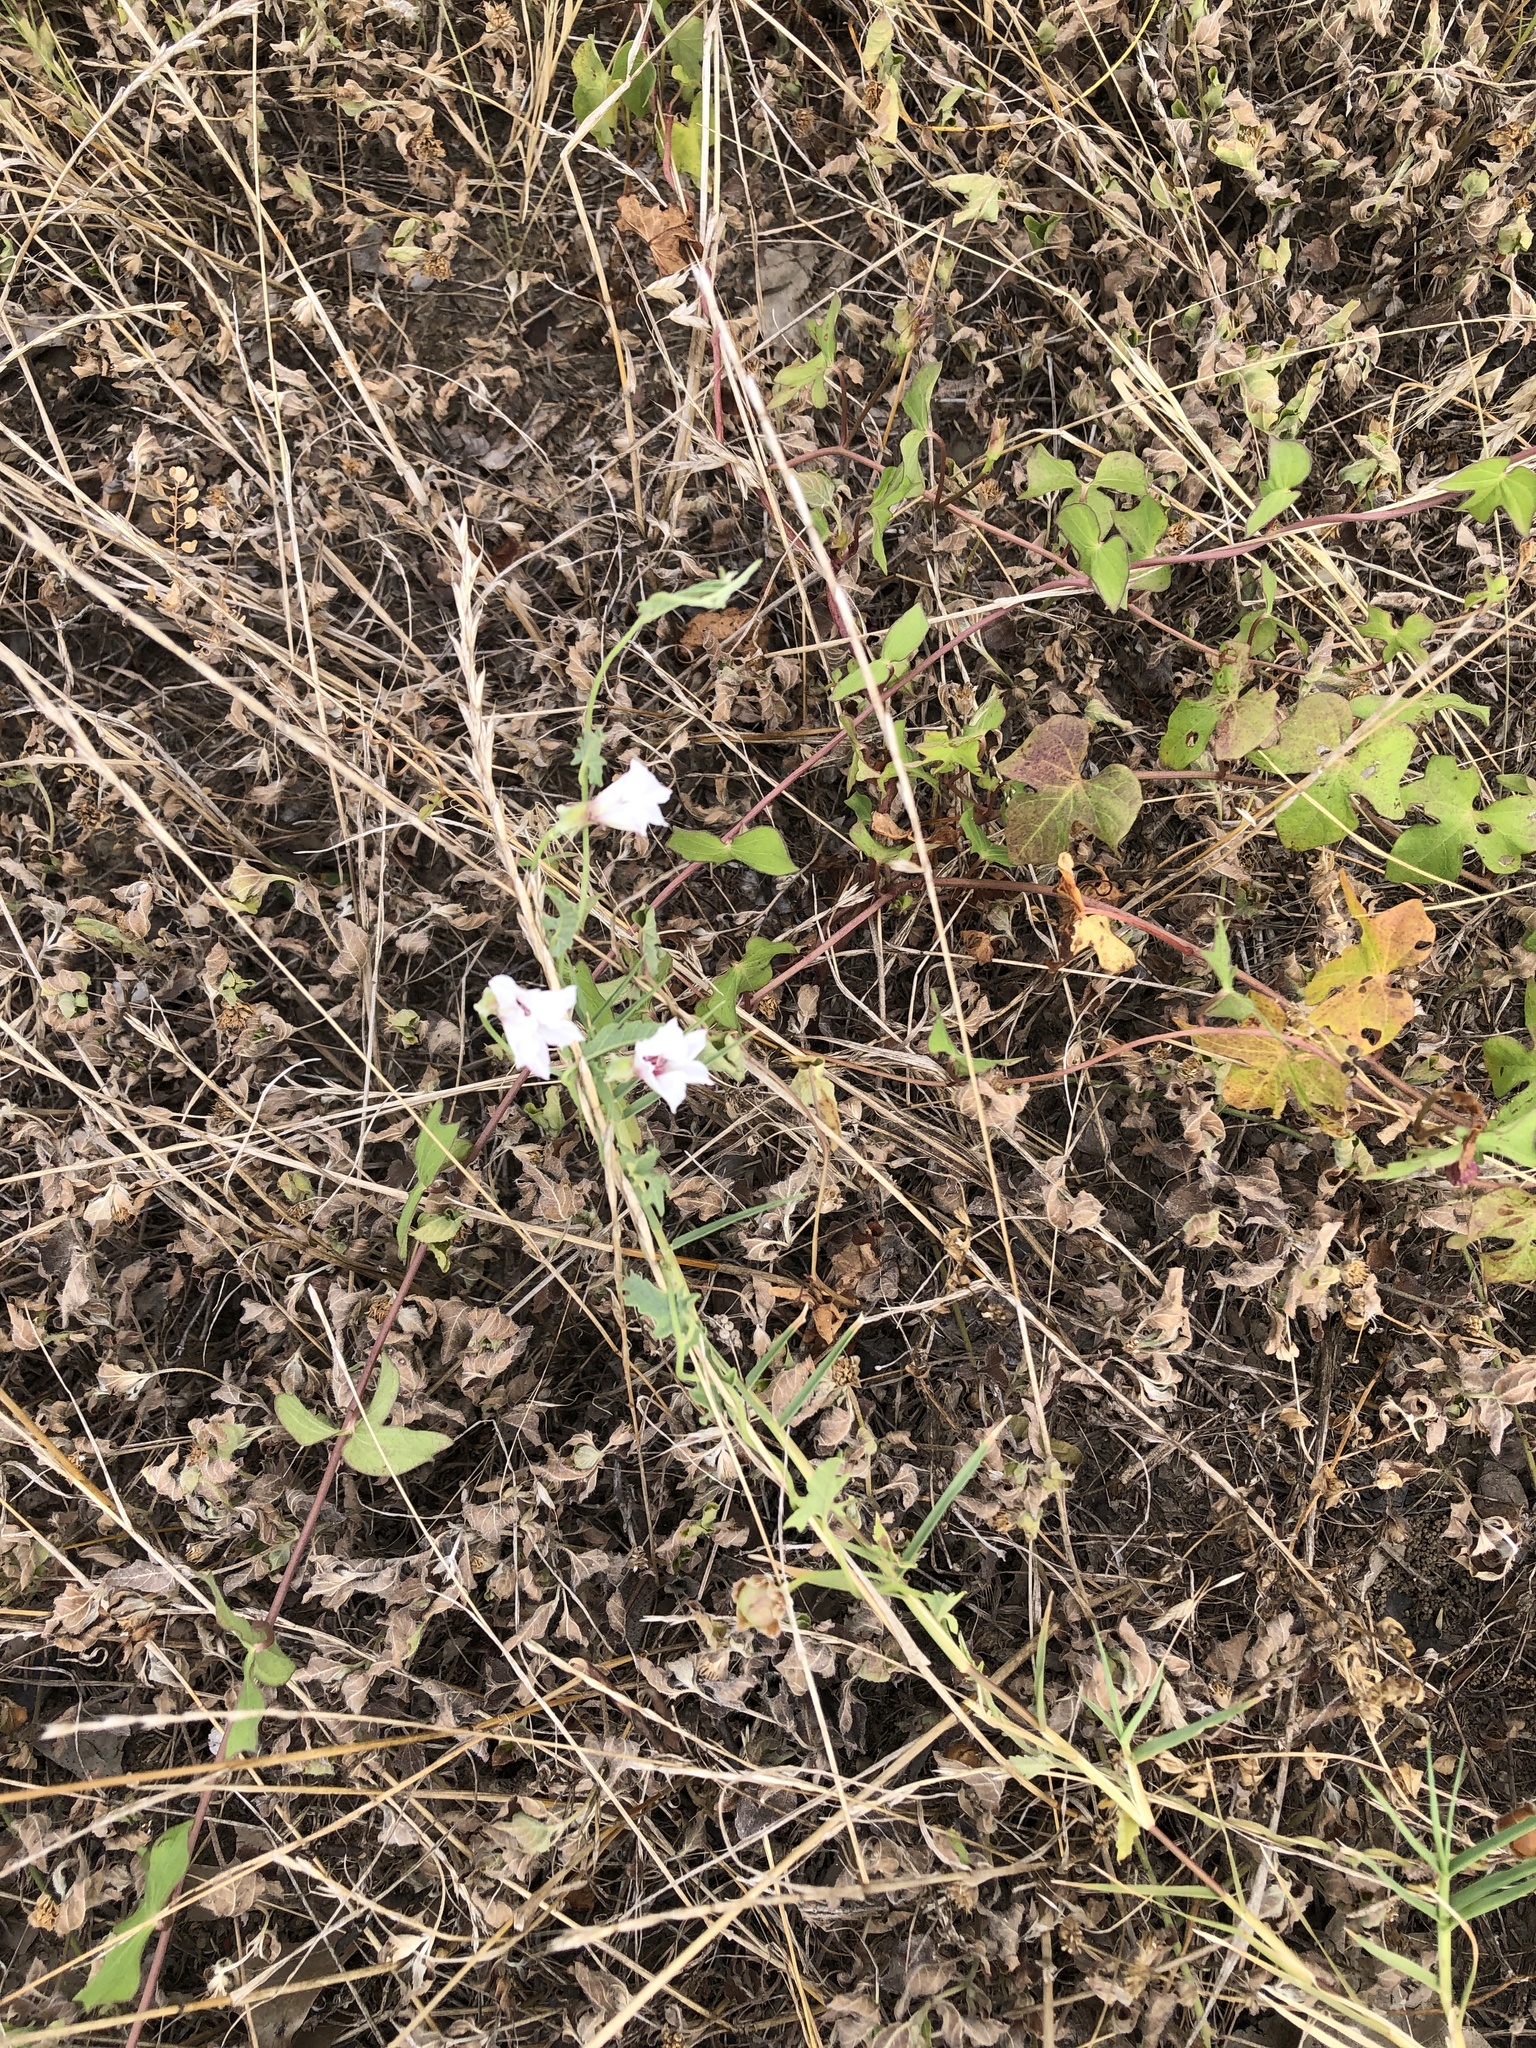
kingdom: Plantae
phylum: Tracheophyta
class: Magnoliopsida
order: Solanales
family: Convolvulaceae
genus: Convolvulus
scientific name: Convolvulus equitans
